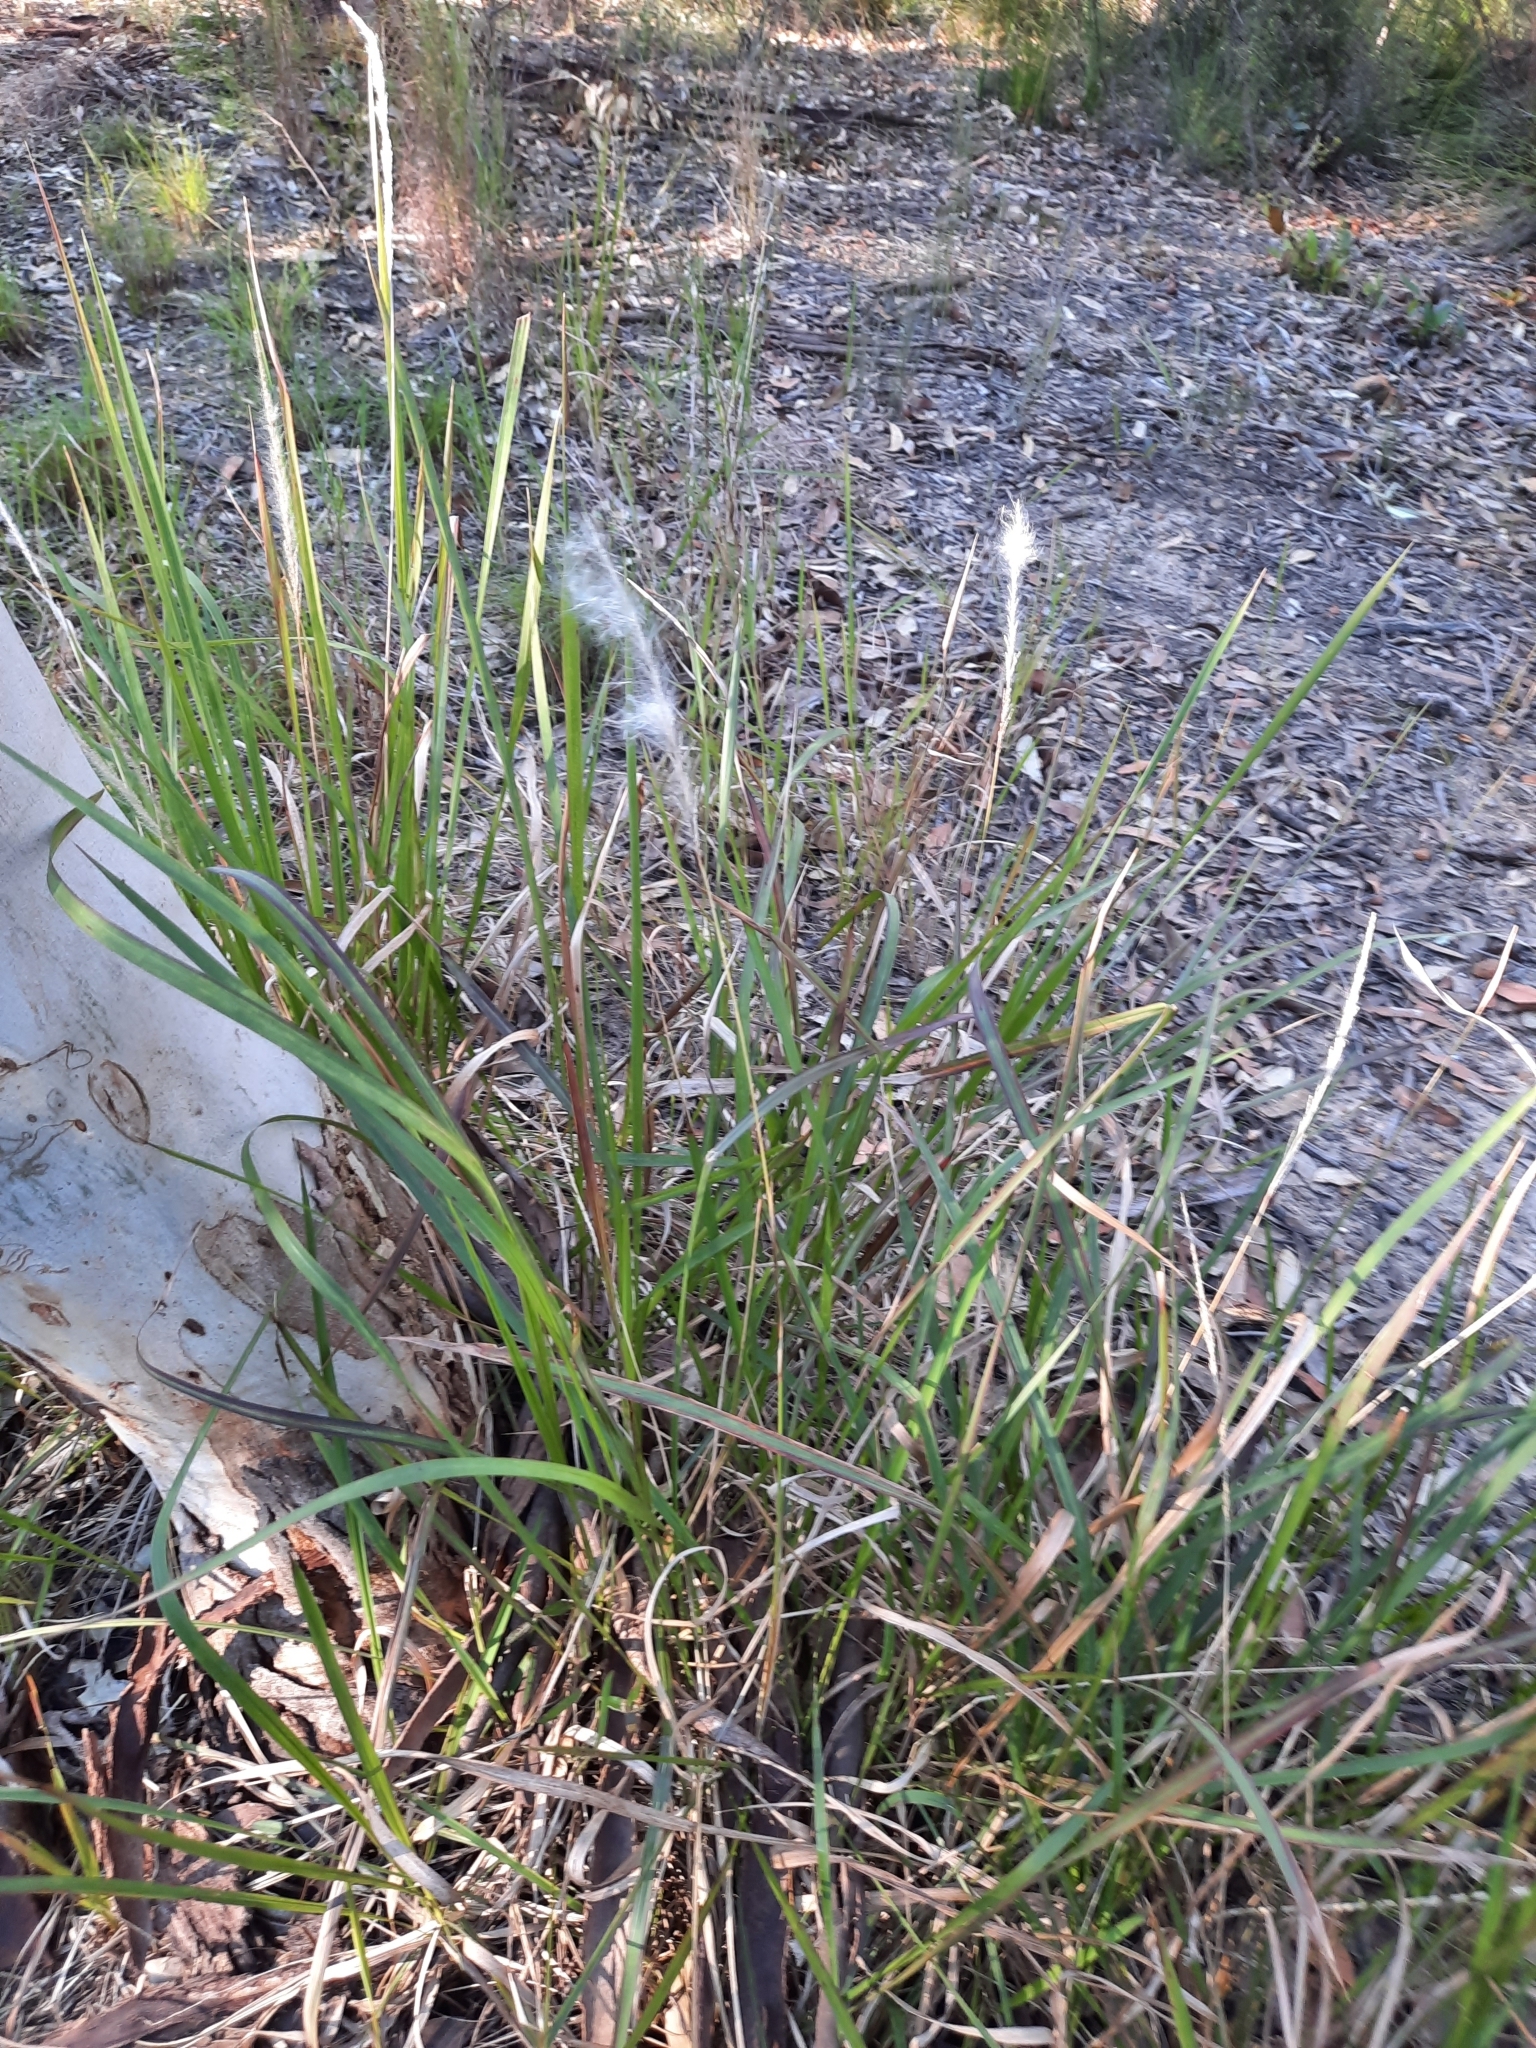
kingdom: Plantae
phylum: Tracheophyta
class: Liliopsida
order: Poales
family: Poaceae
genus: Imperata
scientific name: Imperata cylindrica
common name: Cogongrass
